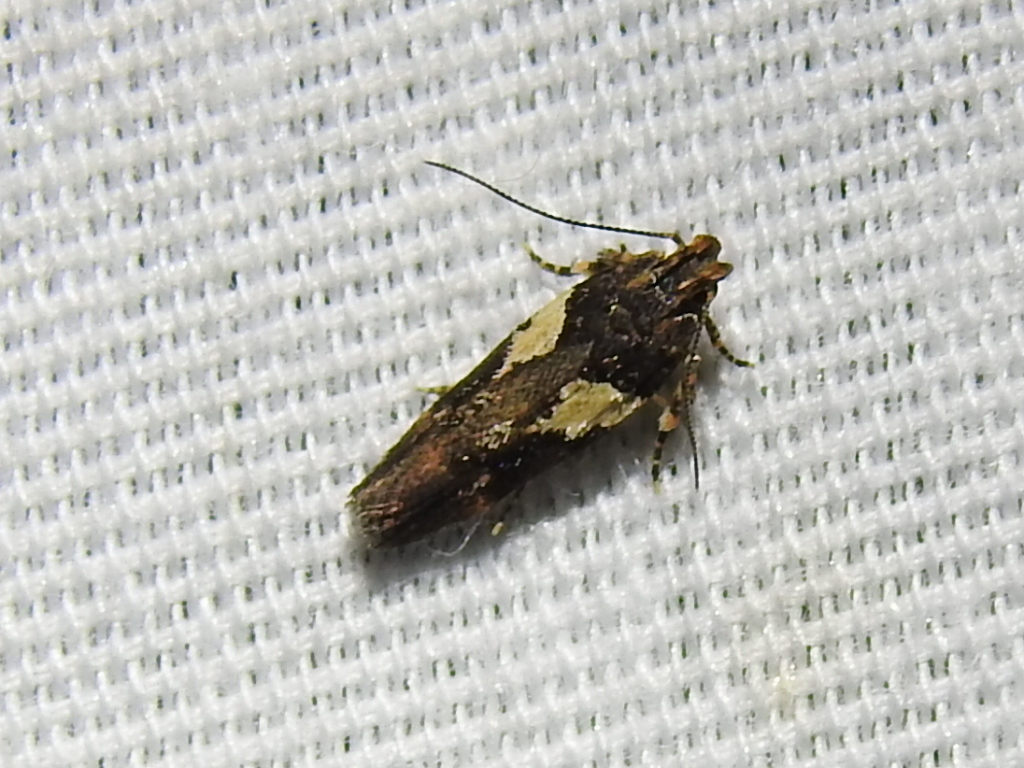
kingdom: Animalia
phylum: Arthropoda
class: Insecta
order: Lepidoptera
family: Gelechiidae
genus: Friseria
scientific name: Friseria acaciella
